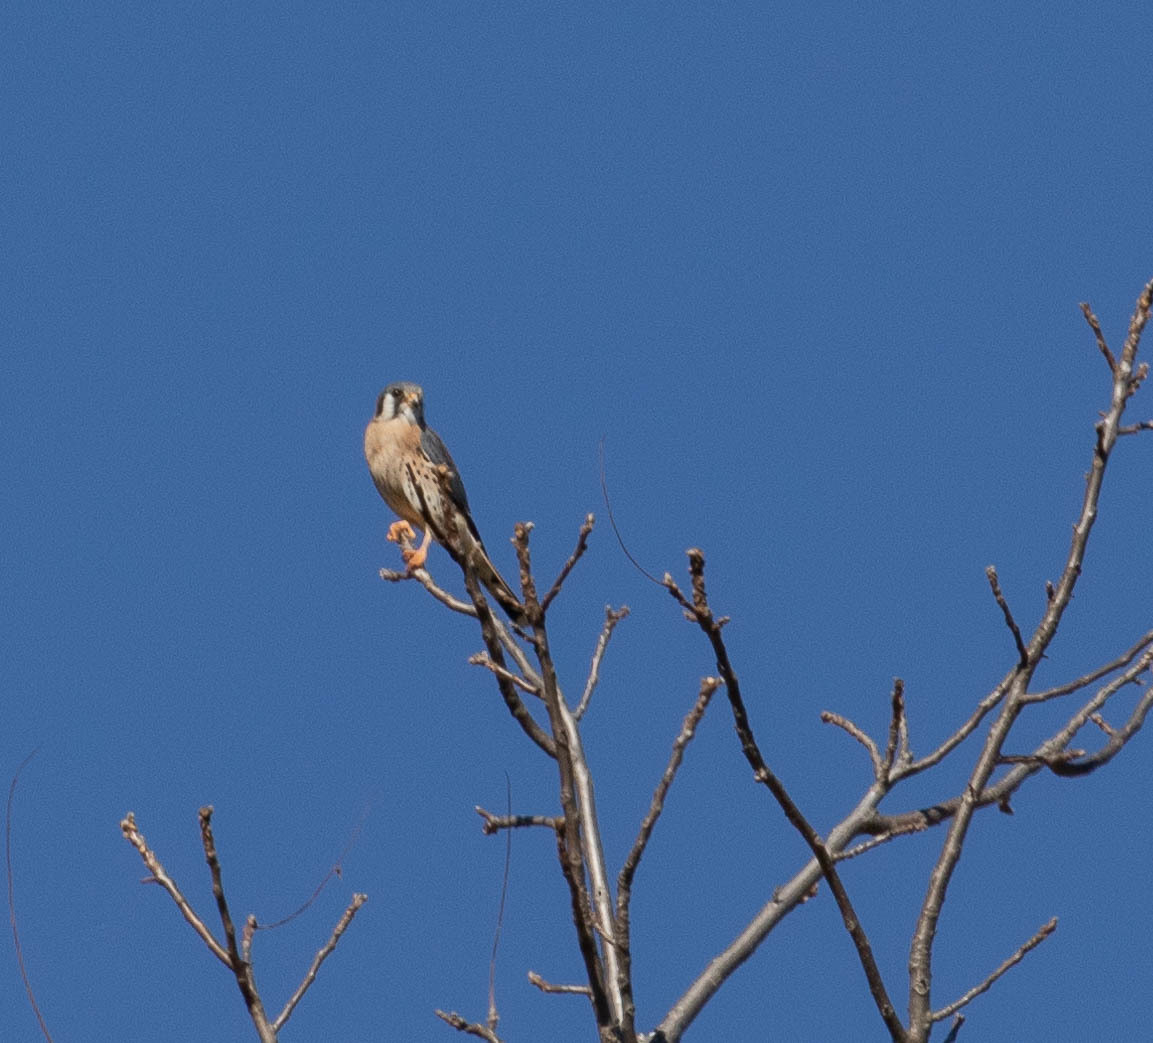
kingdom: Animalia
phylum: Chordata
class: Aves
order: Falconiformes
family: Falconidae
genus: Falco
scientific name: Falco sparverius
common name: American kestrel
